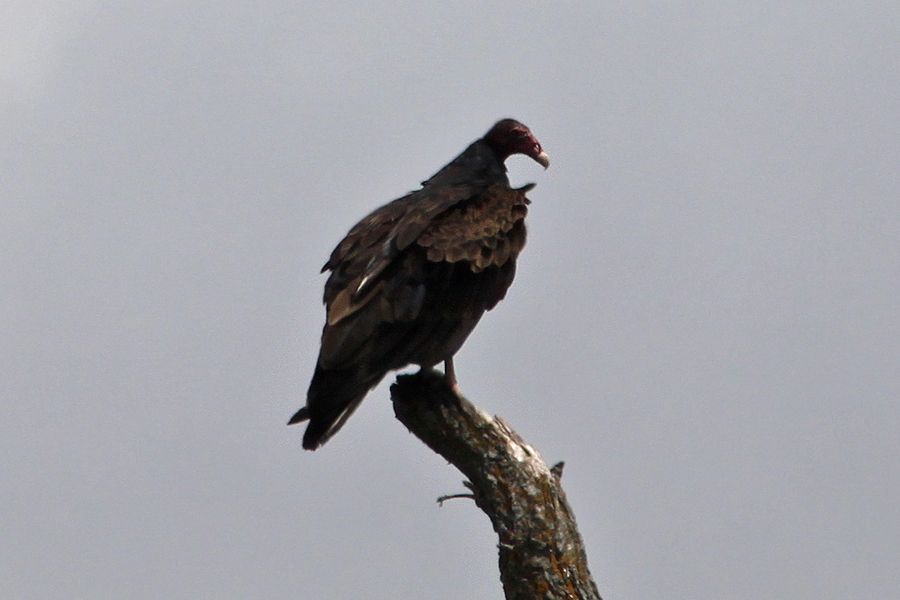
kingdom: Animalia
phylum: Chordata
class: Aves
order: Accipitriformes
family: Cathartidae
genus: Cathartes
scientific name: Cathartes aura
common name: Turkey vulture
